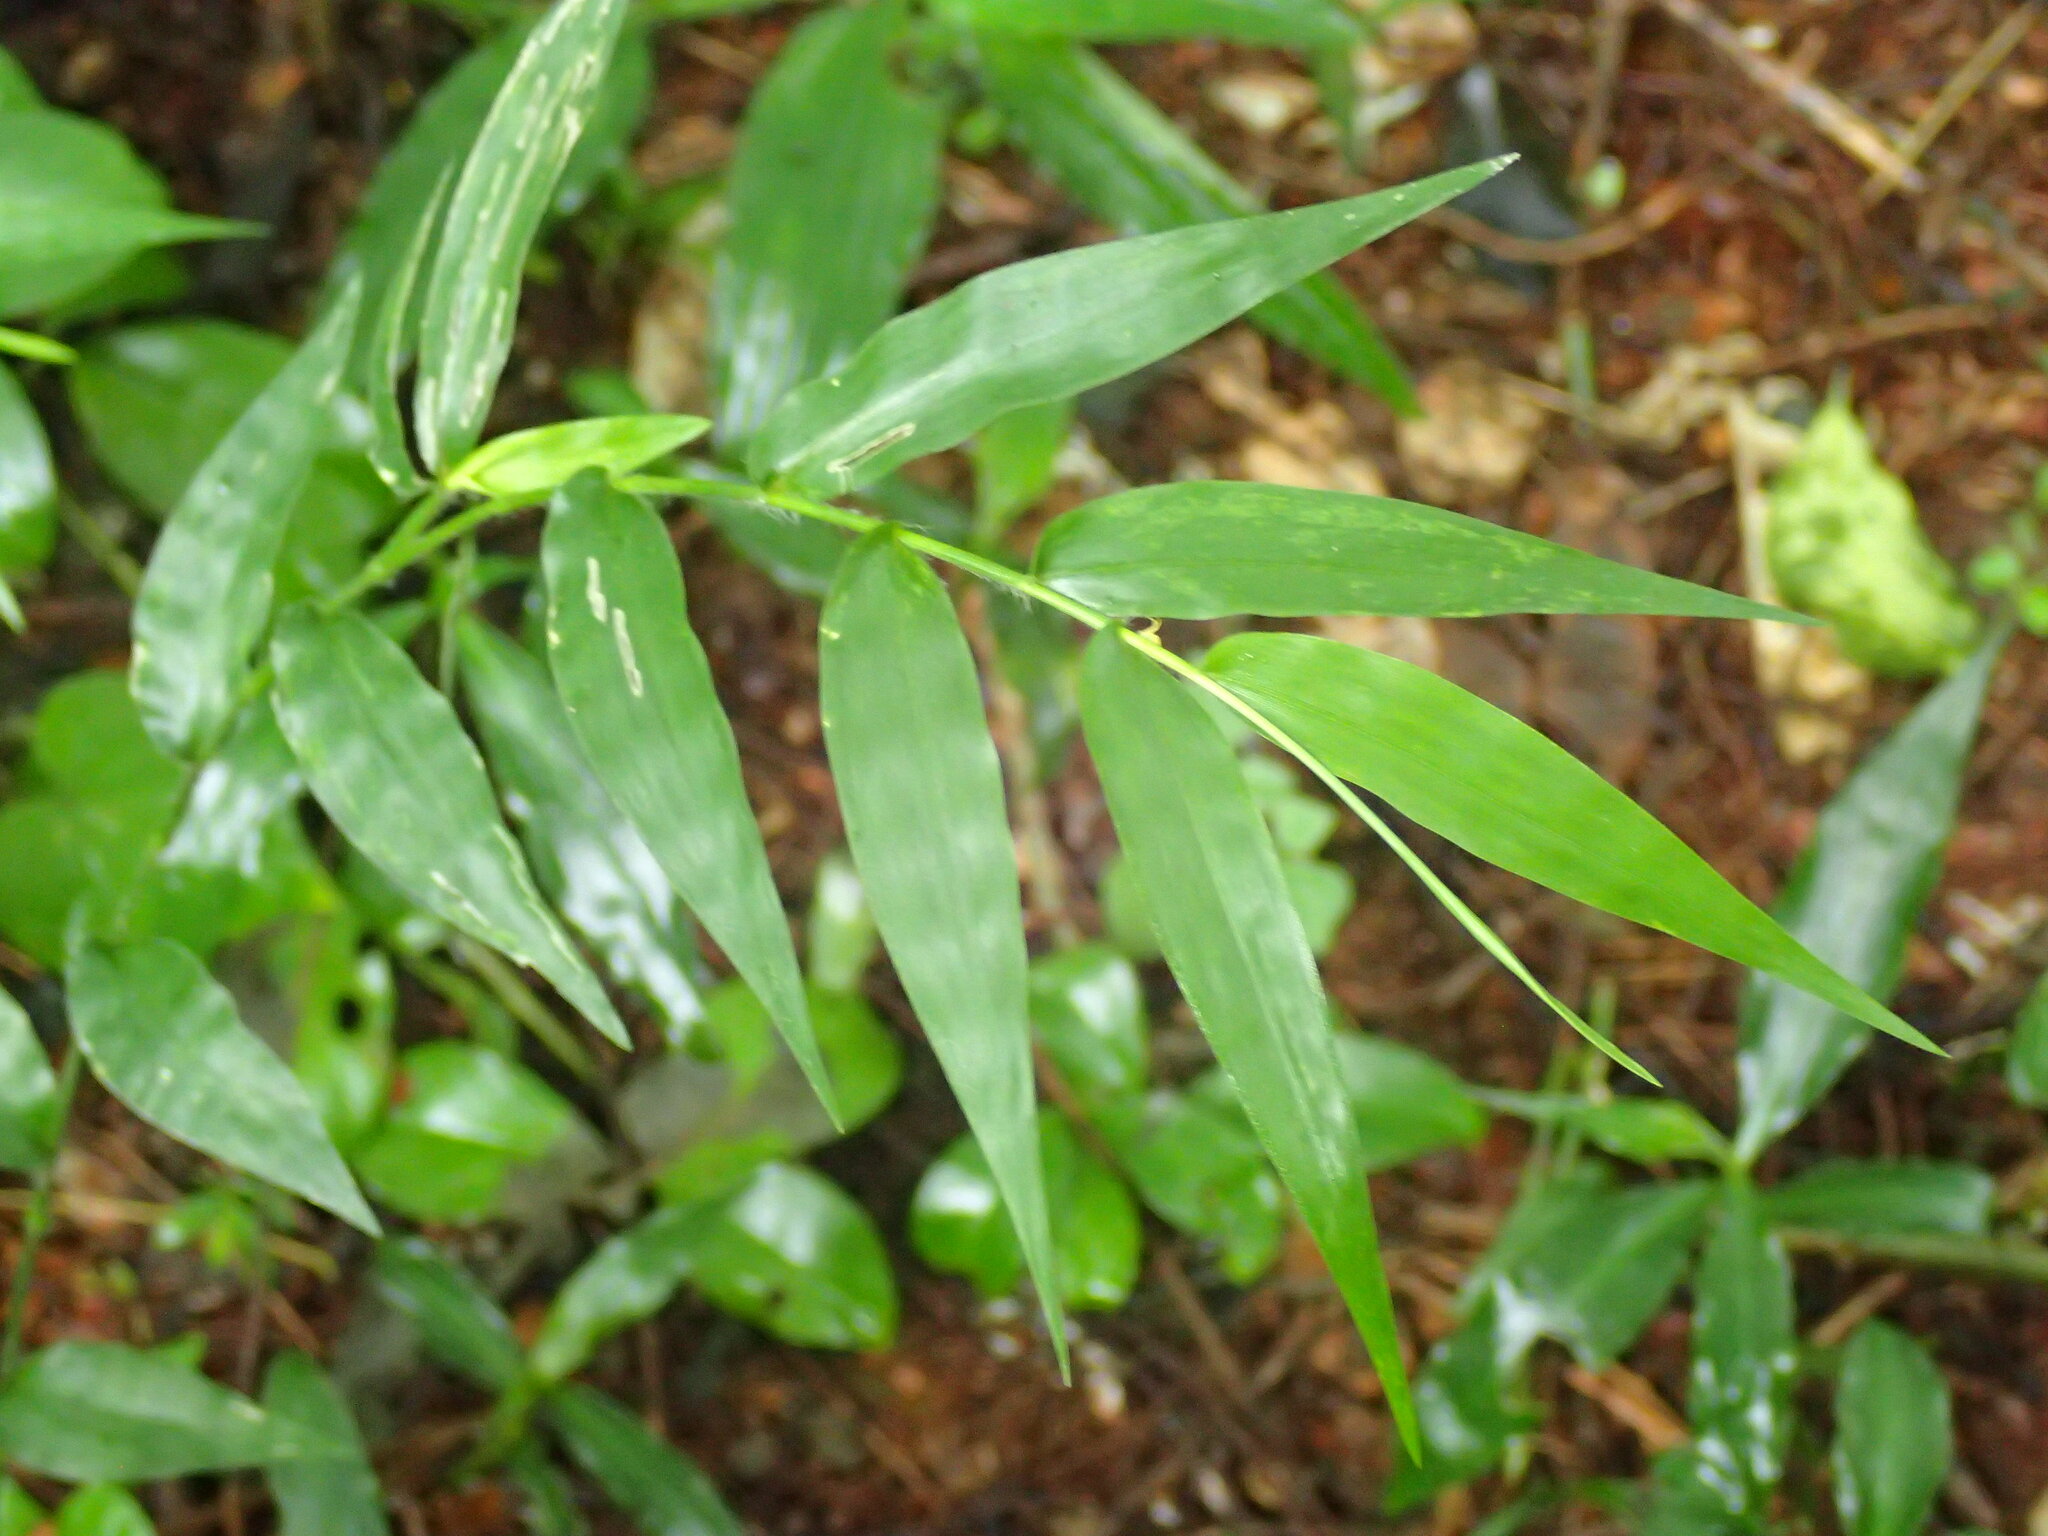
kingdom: Plantae
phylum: Tracheophyta
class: Liliopsida
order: Poales
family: Poaceae
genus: Oplismenus
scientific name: Oplismenus hirtellus
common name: Basketgrass
